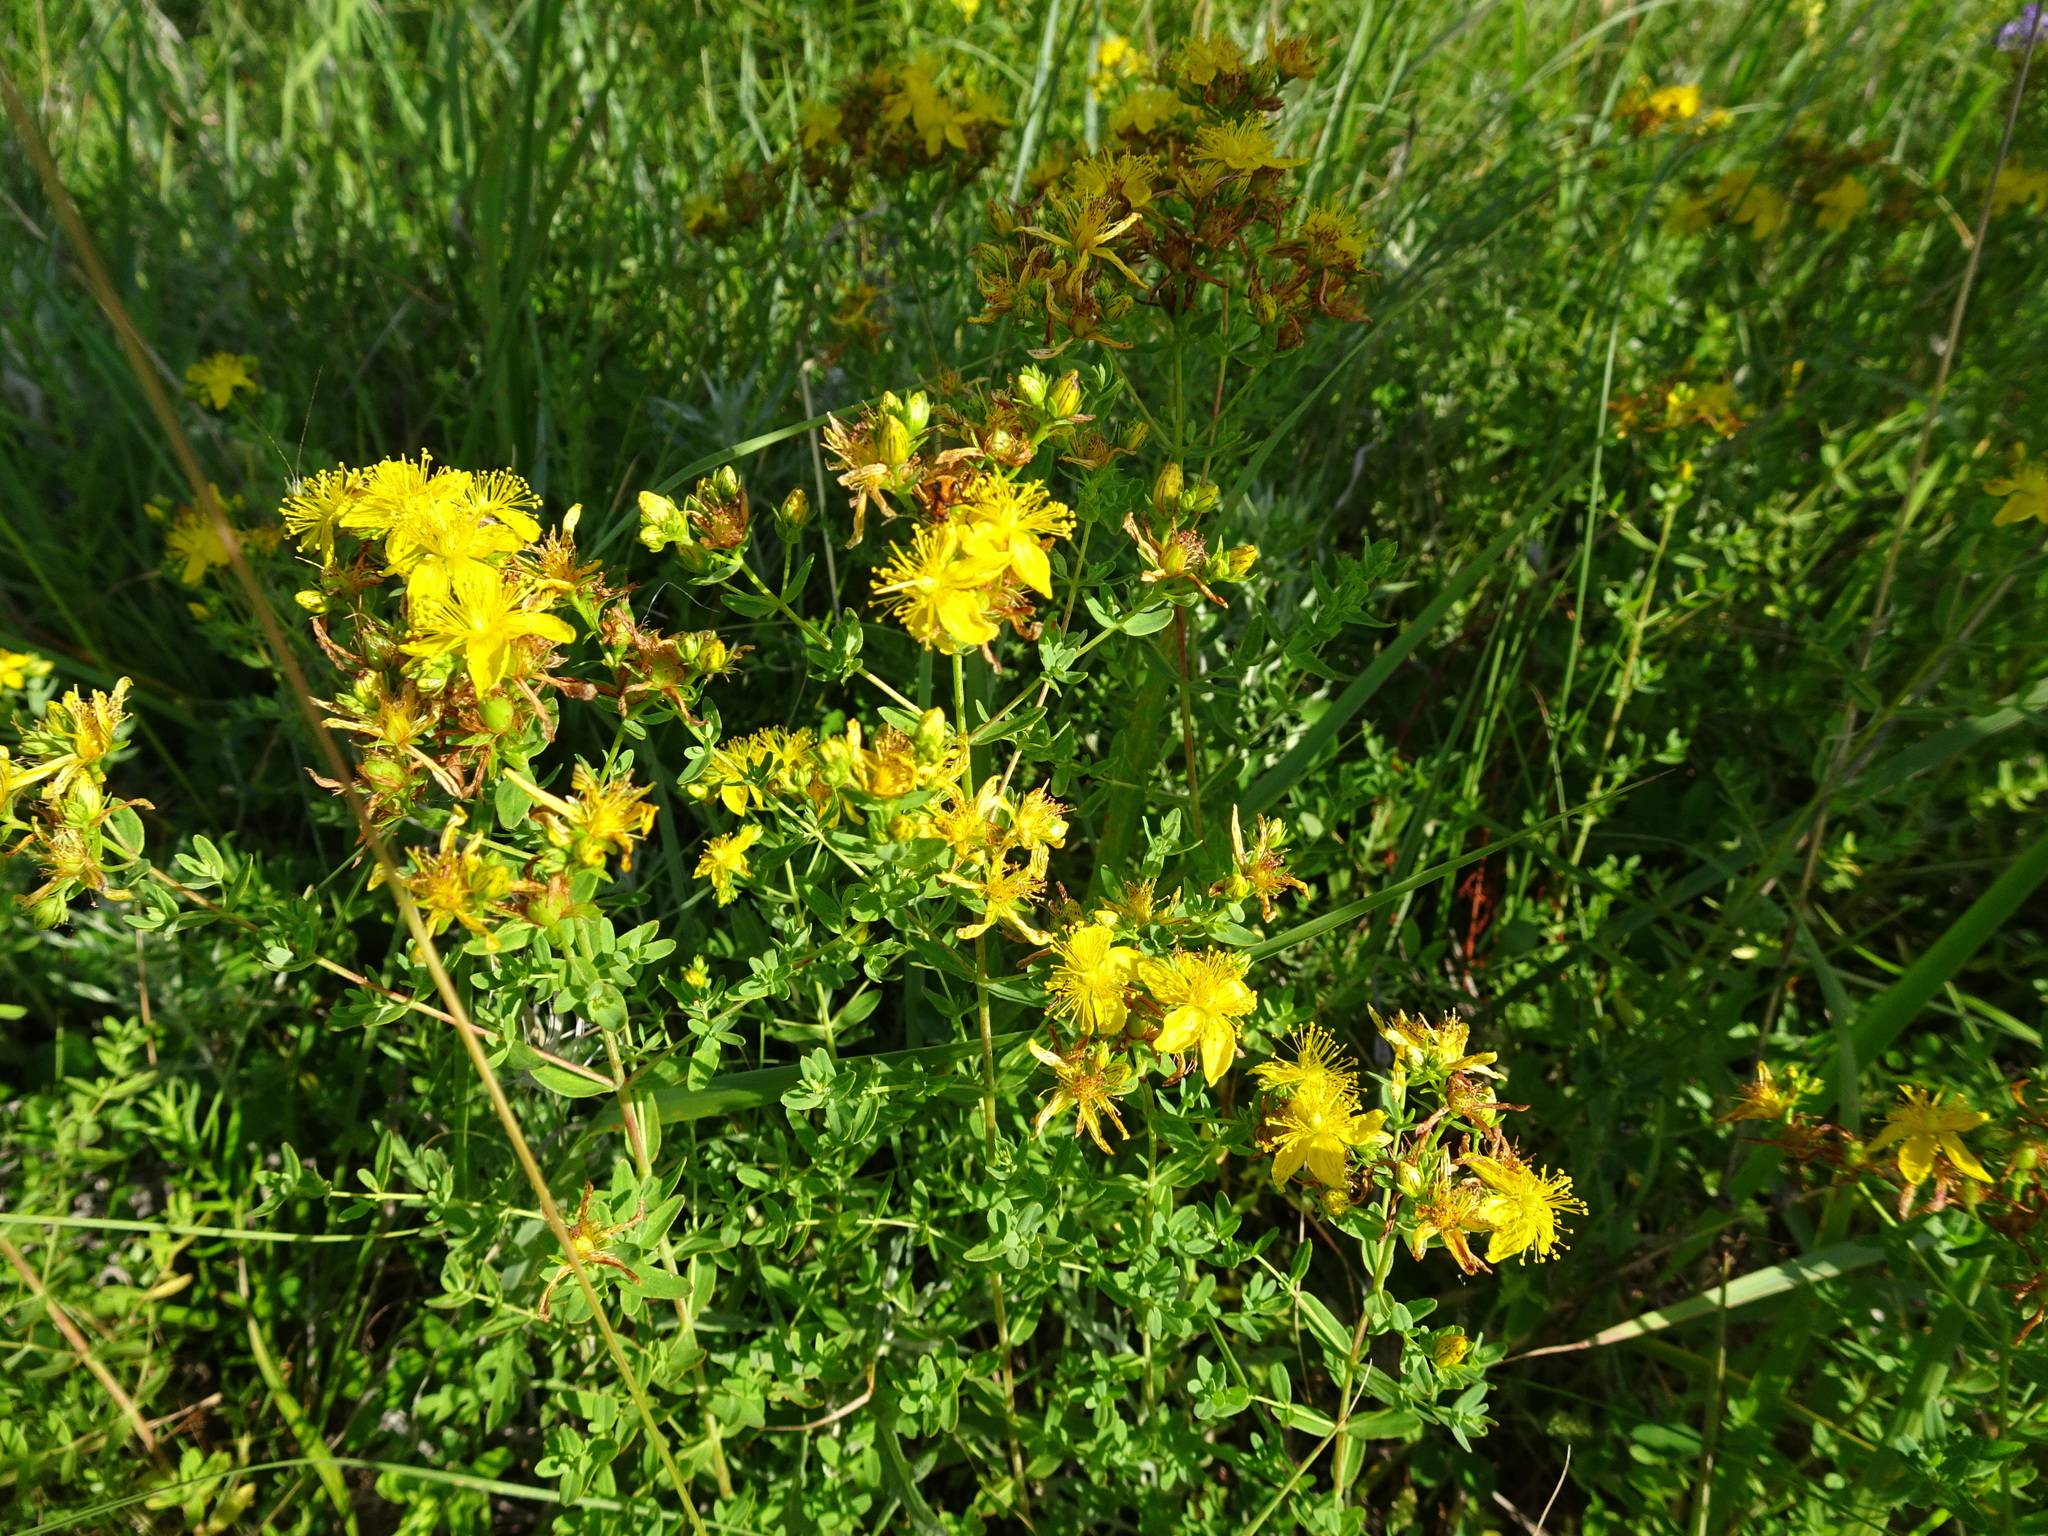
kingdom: Plantae
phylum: Tracheophyta
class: Magnoliopsida
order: Malpighiales
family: Hypericaceae
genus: Hypericum
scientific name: Hypericum perforatum
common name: Common st. johnswort
